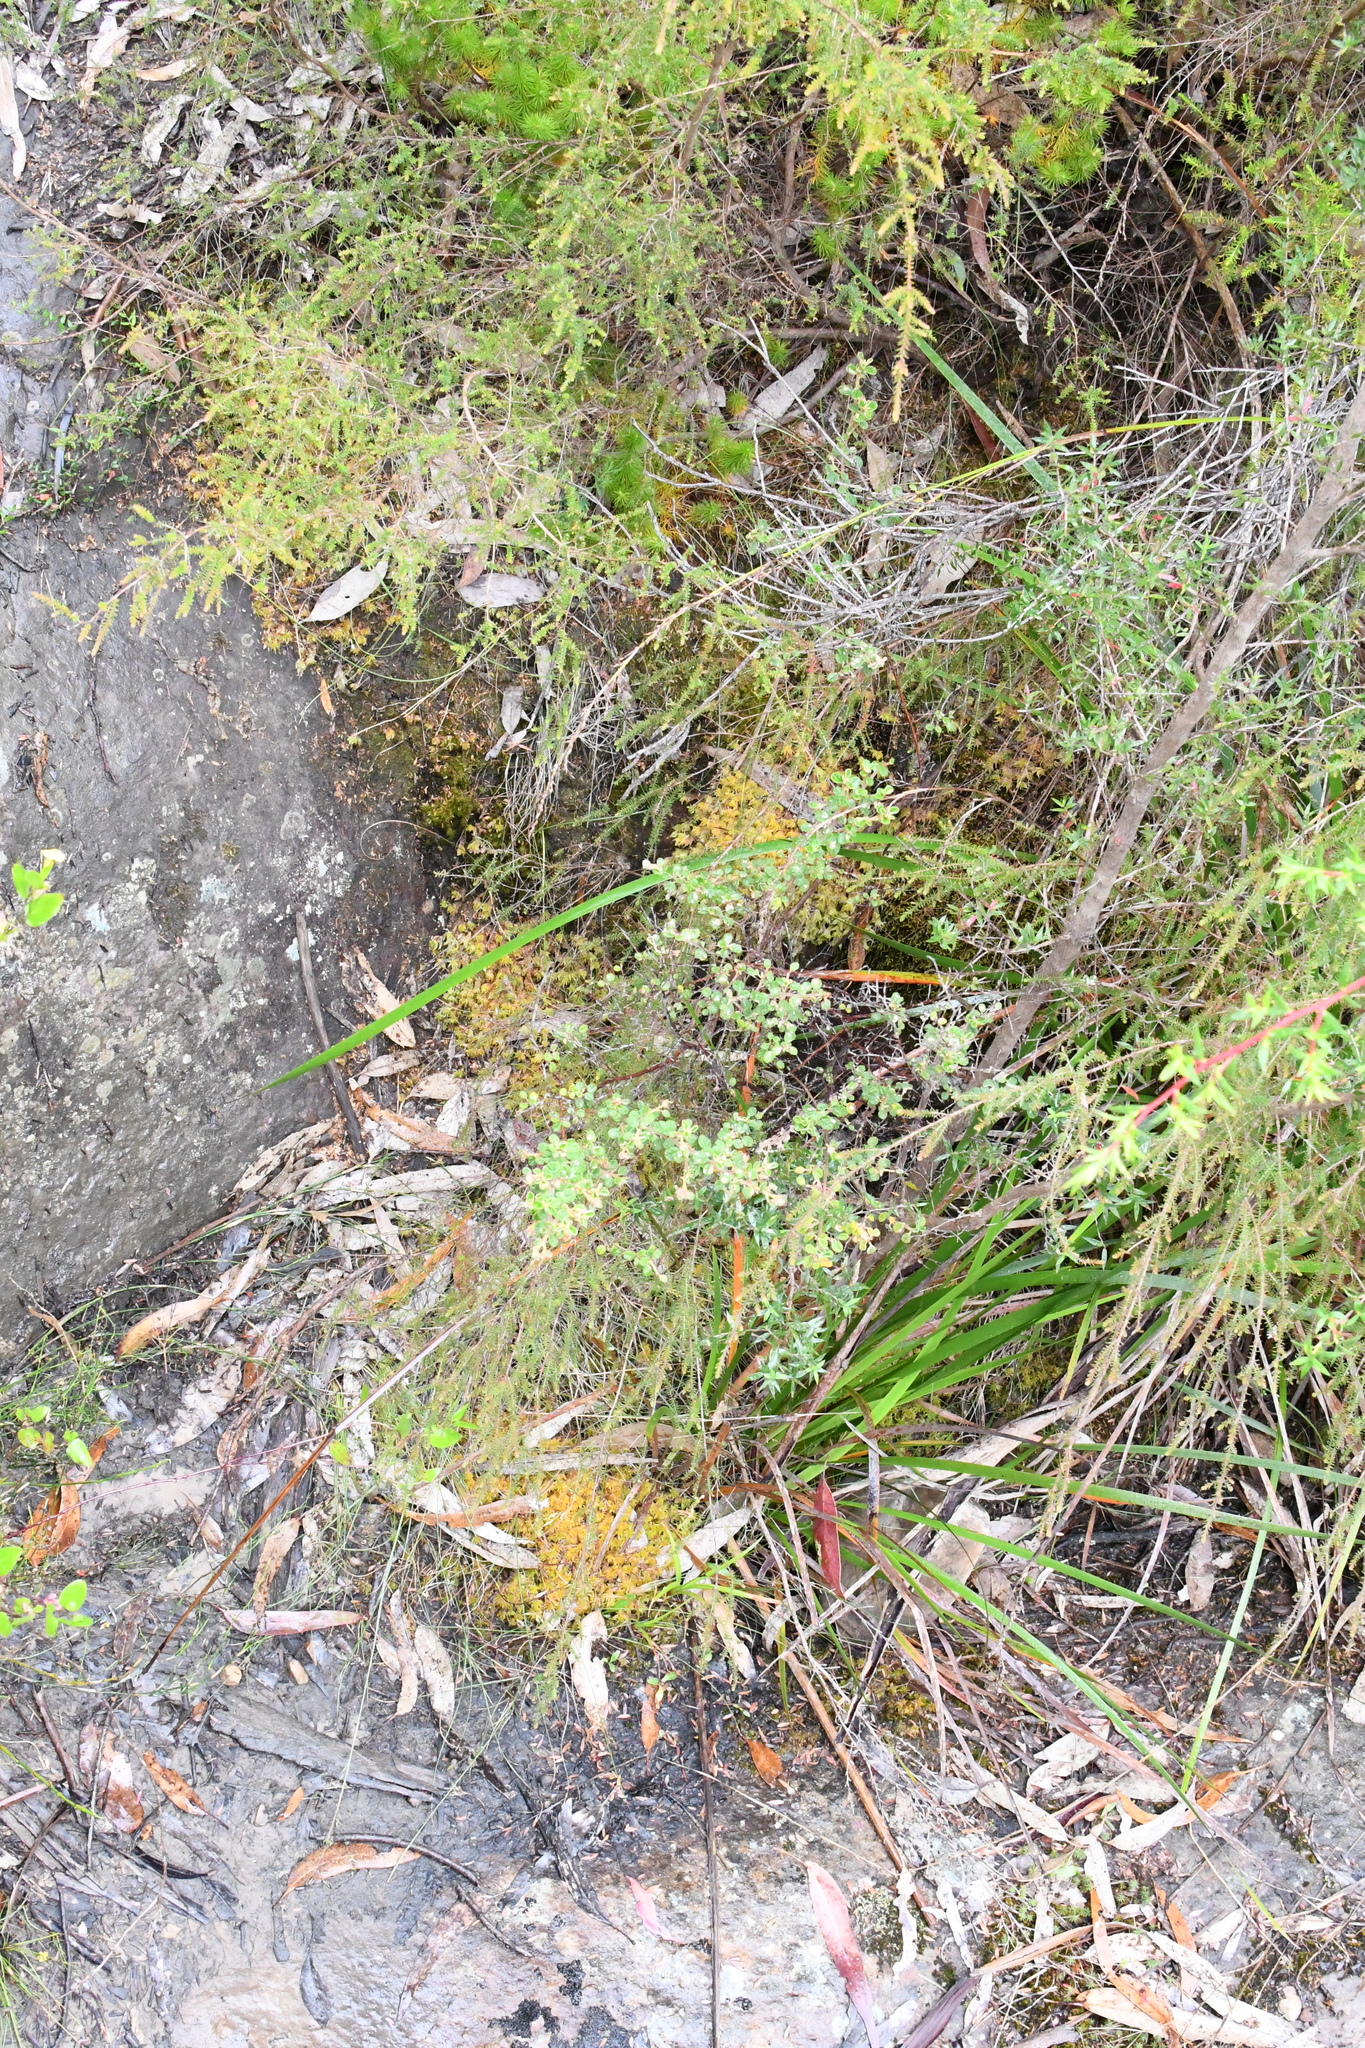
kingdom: Plantae
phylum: Bryophyta
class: Sphagnopsida
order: Sphagnales
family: Sphagnaceae
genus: Sphagnum
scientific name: Sphagnum novozelandicum
